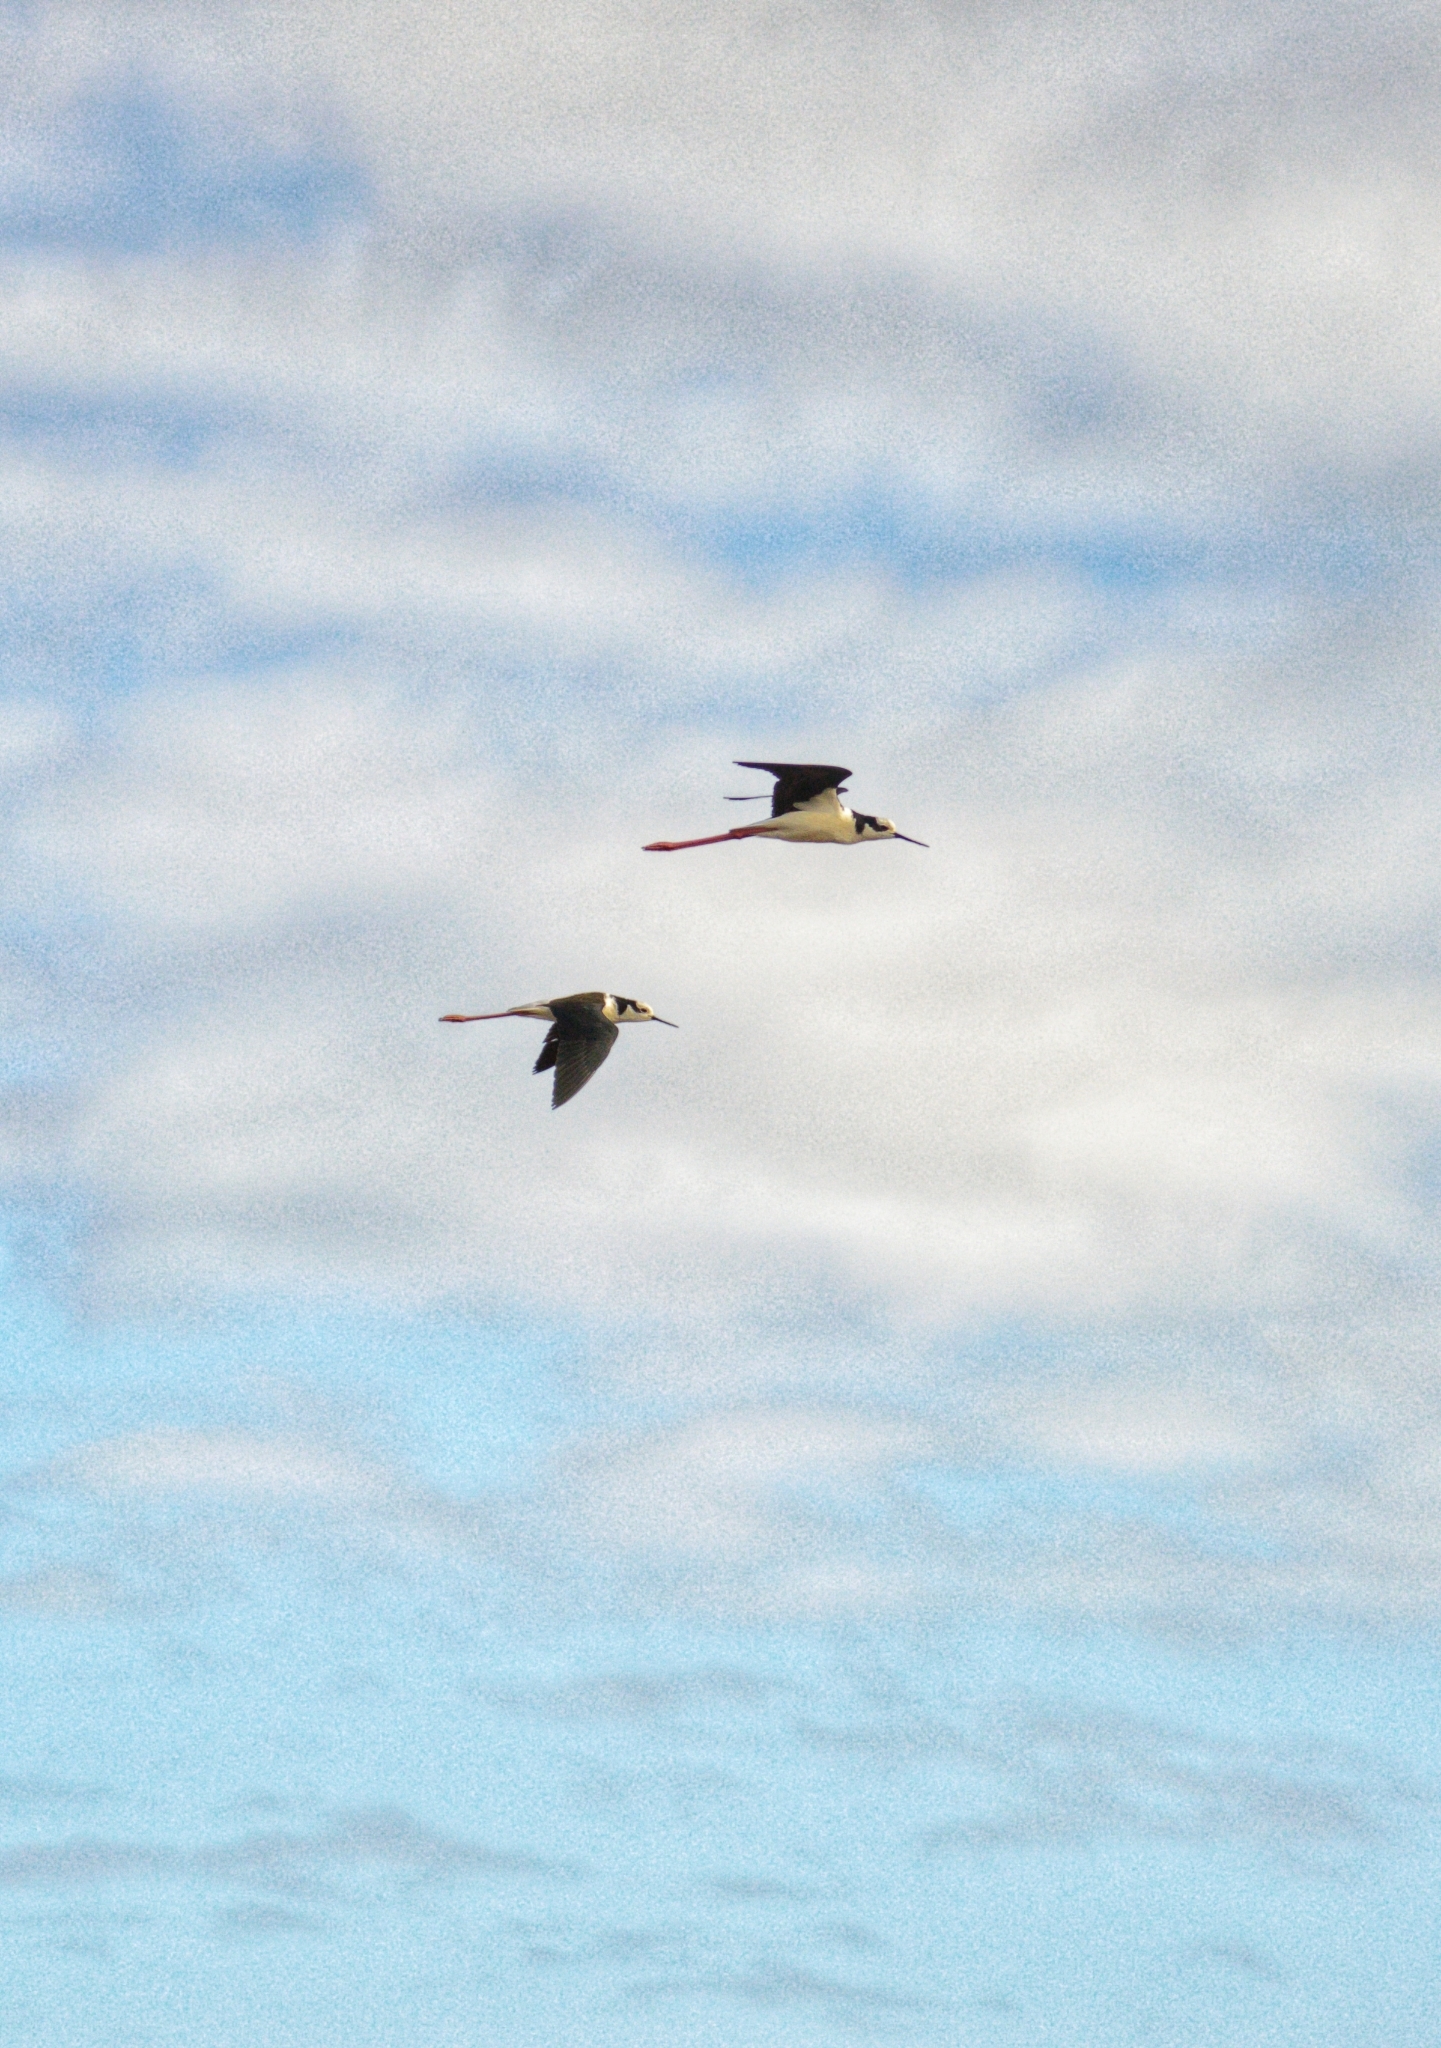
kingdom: Animalia
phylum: Chordata
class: Aves
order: Charadriiformes
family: Recurvirostridae
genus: Himantopus
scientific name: Himantopus mexicanus
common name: Black-necked stilt
